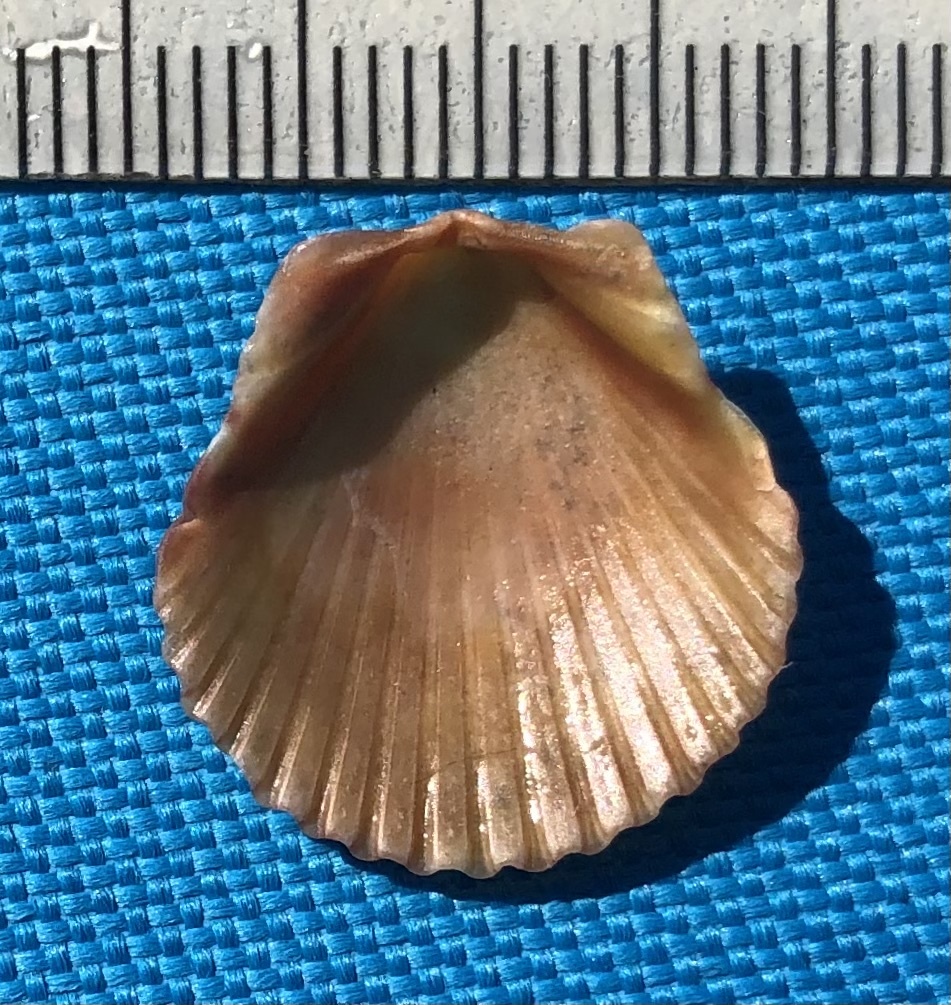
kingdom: Animalia
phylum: Mollusca
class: Bivalvia
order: Pectinida
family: Pectinidae
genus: Argopecten
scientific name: Argopecten gibbus
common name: Atlantic calico scallop
